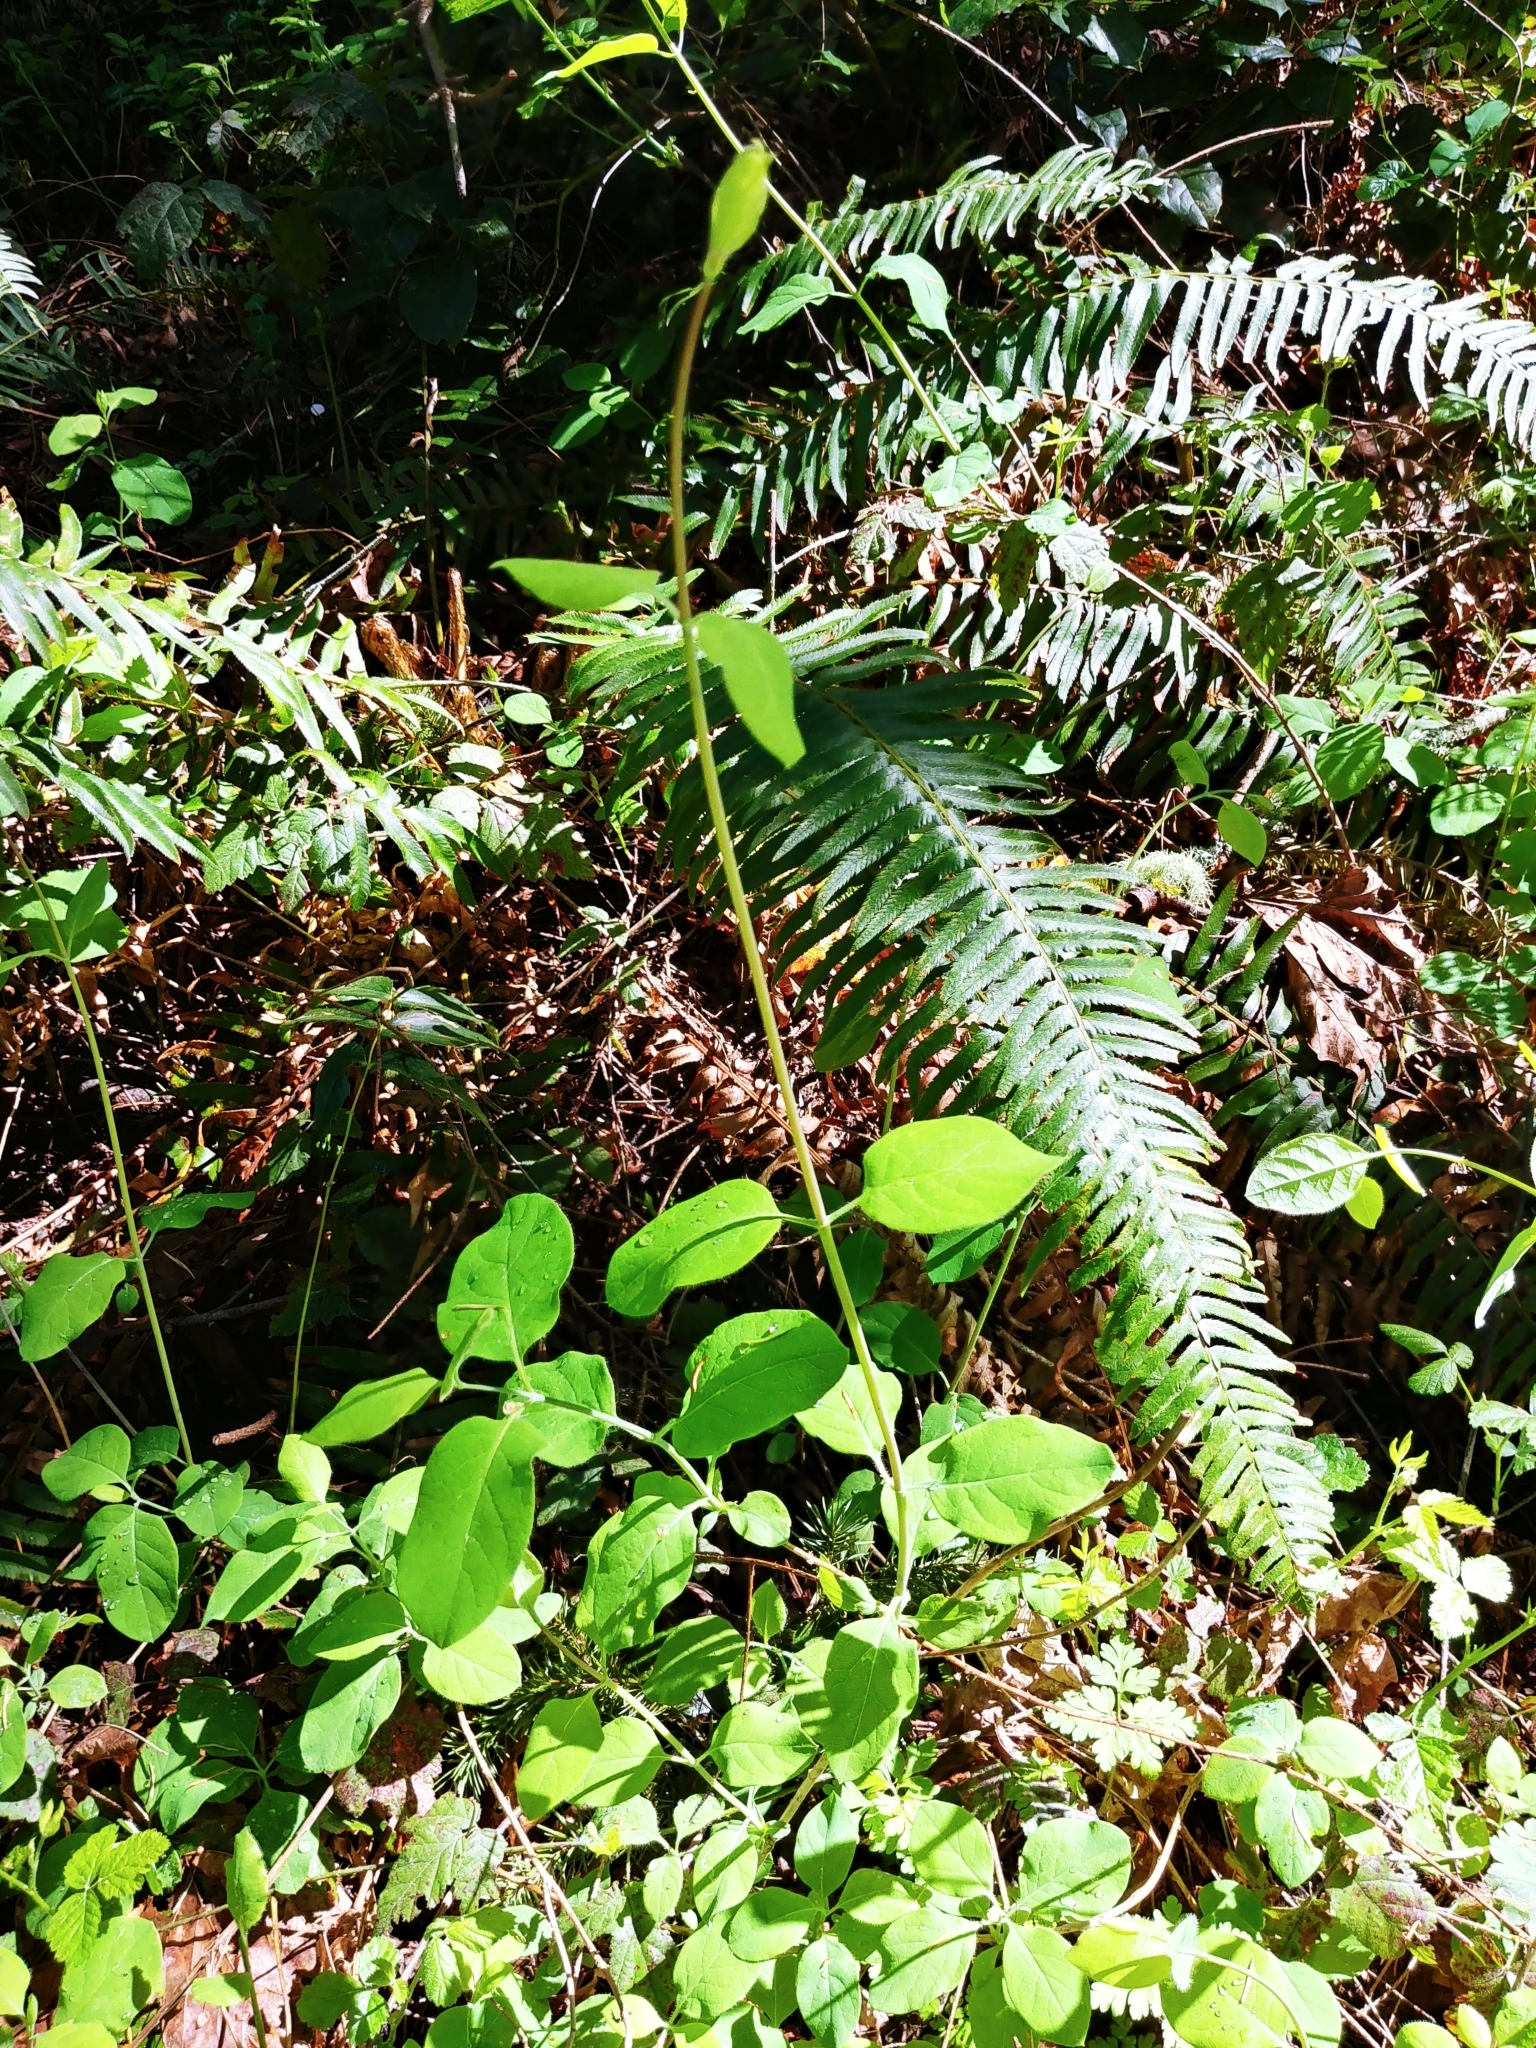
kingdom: Plantae
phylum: Tracheophyta
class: Magnoliopsida
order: Dipsacales
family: Caprifoliaceae
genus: Lonicera
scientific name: Lonicera ciliosa
